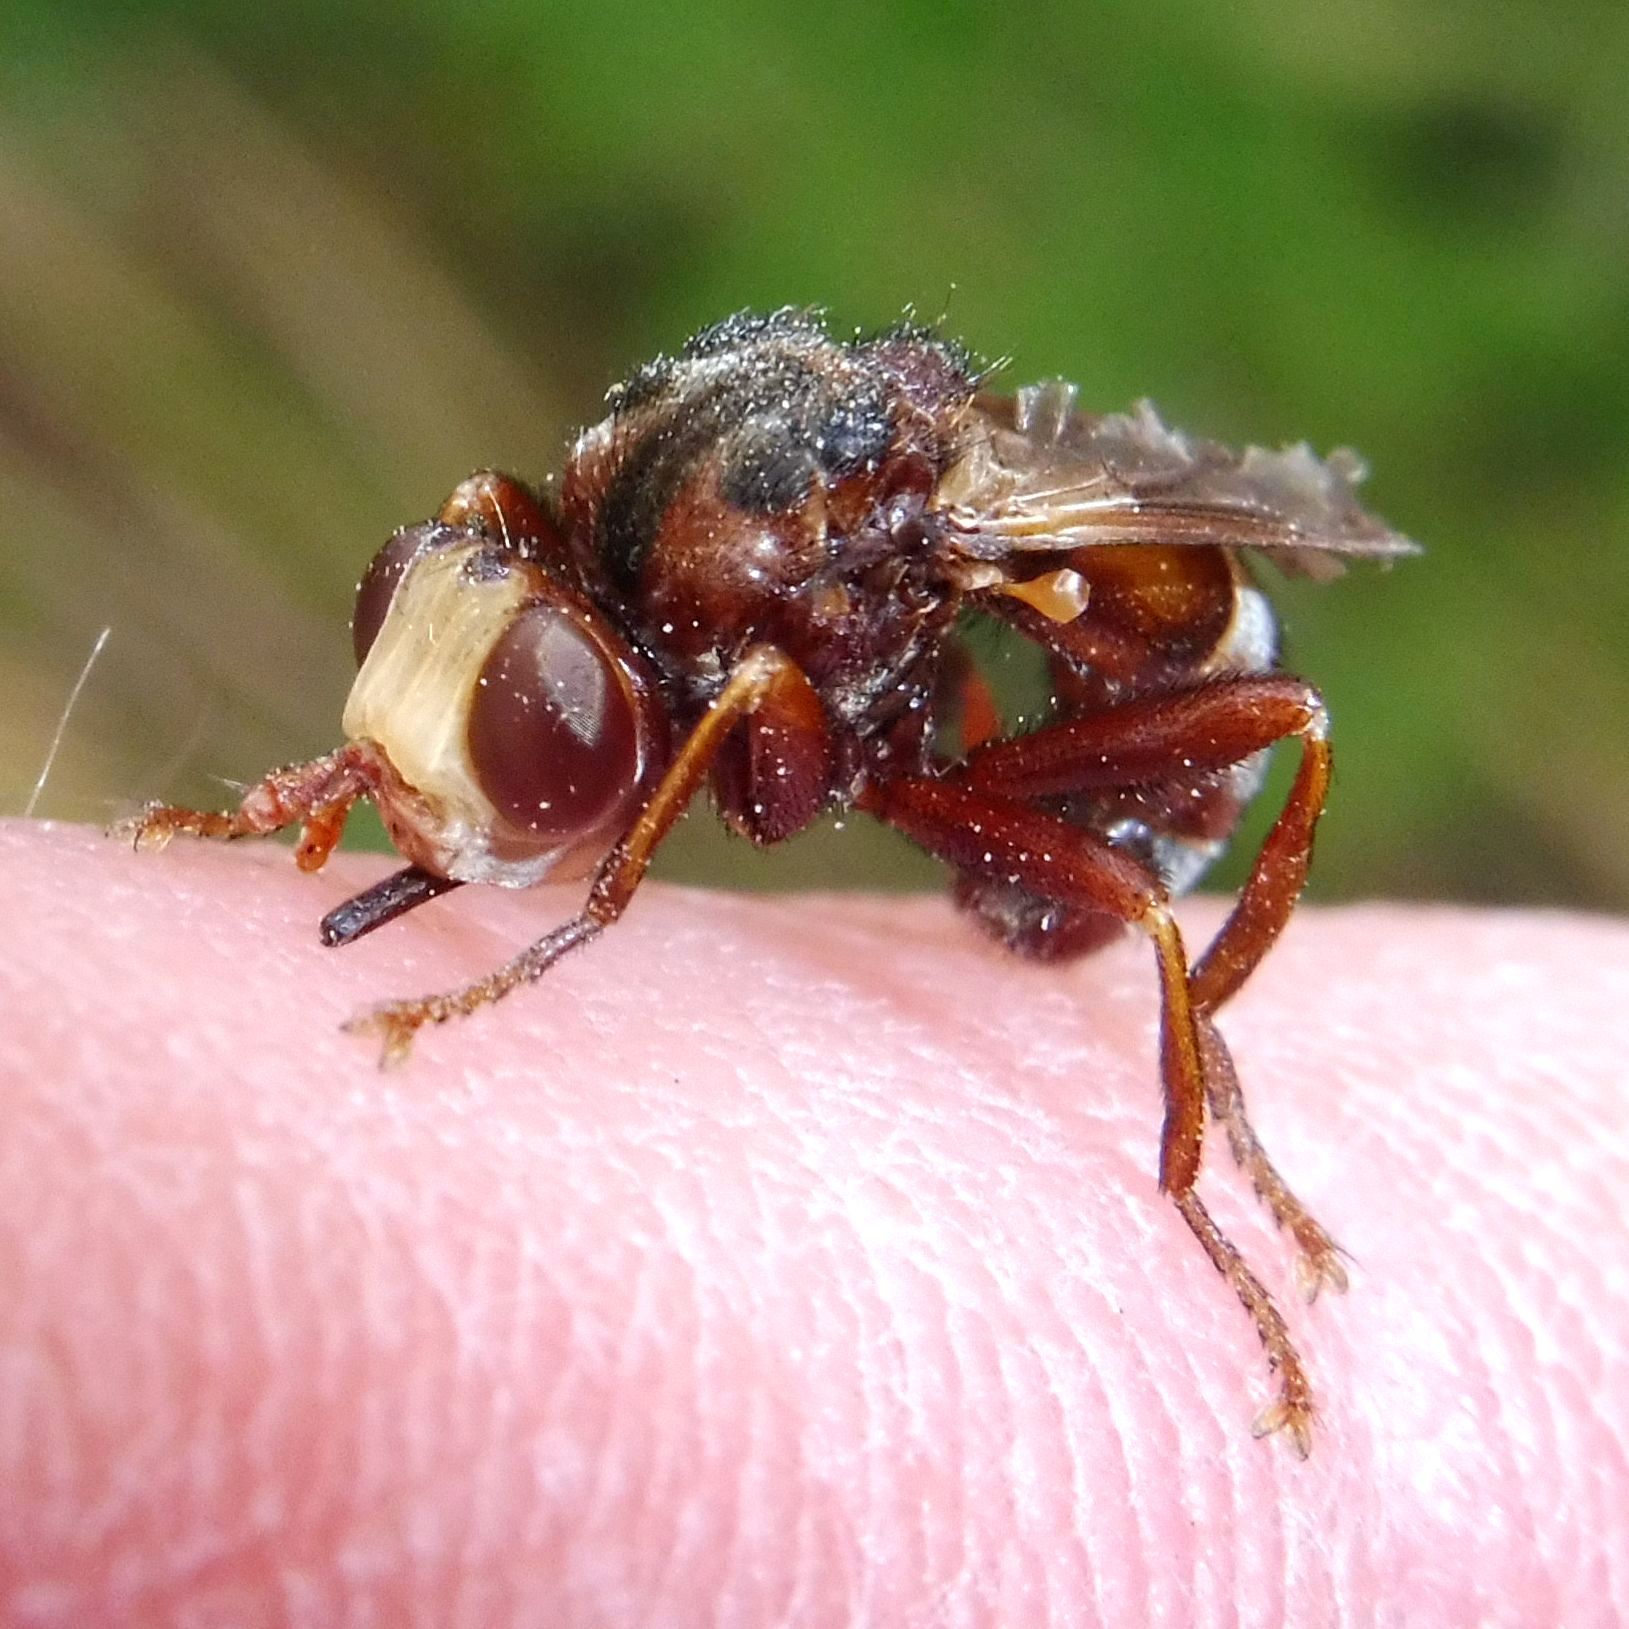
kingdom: Animalia
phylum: Arthropoda
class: Insecta
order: Diptera
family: Conopidae
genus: Sicus
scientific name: Sicus ferrugineus
